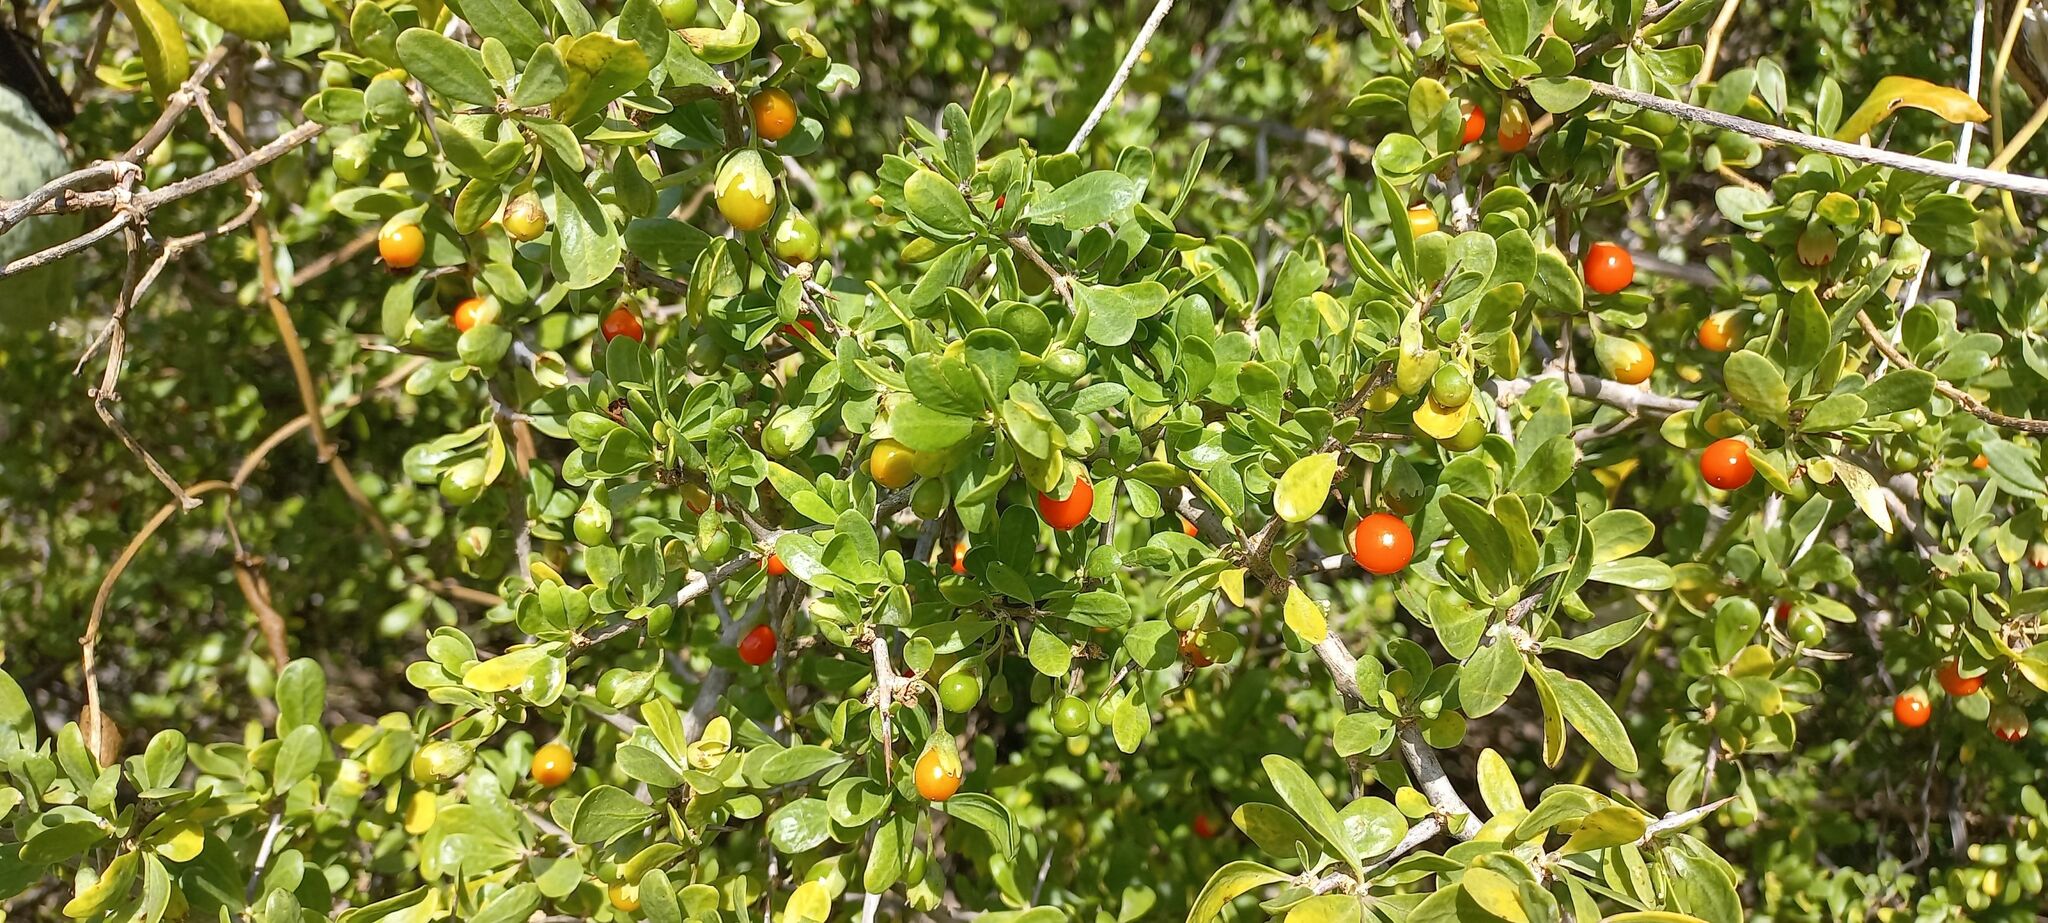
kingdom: Plantae
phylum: Tracheophyta
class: Magnoliopsida
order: Solanales
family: Solanaceae
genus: Lycium
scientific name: Lycium ferocissimum
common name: African boxthorn
